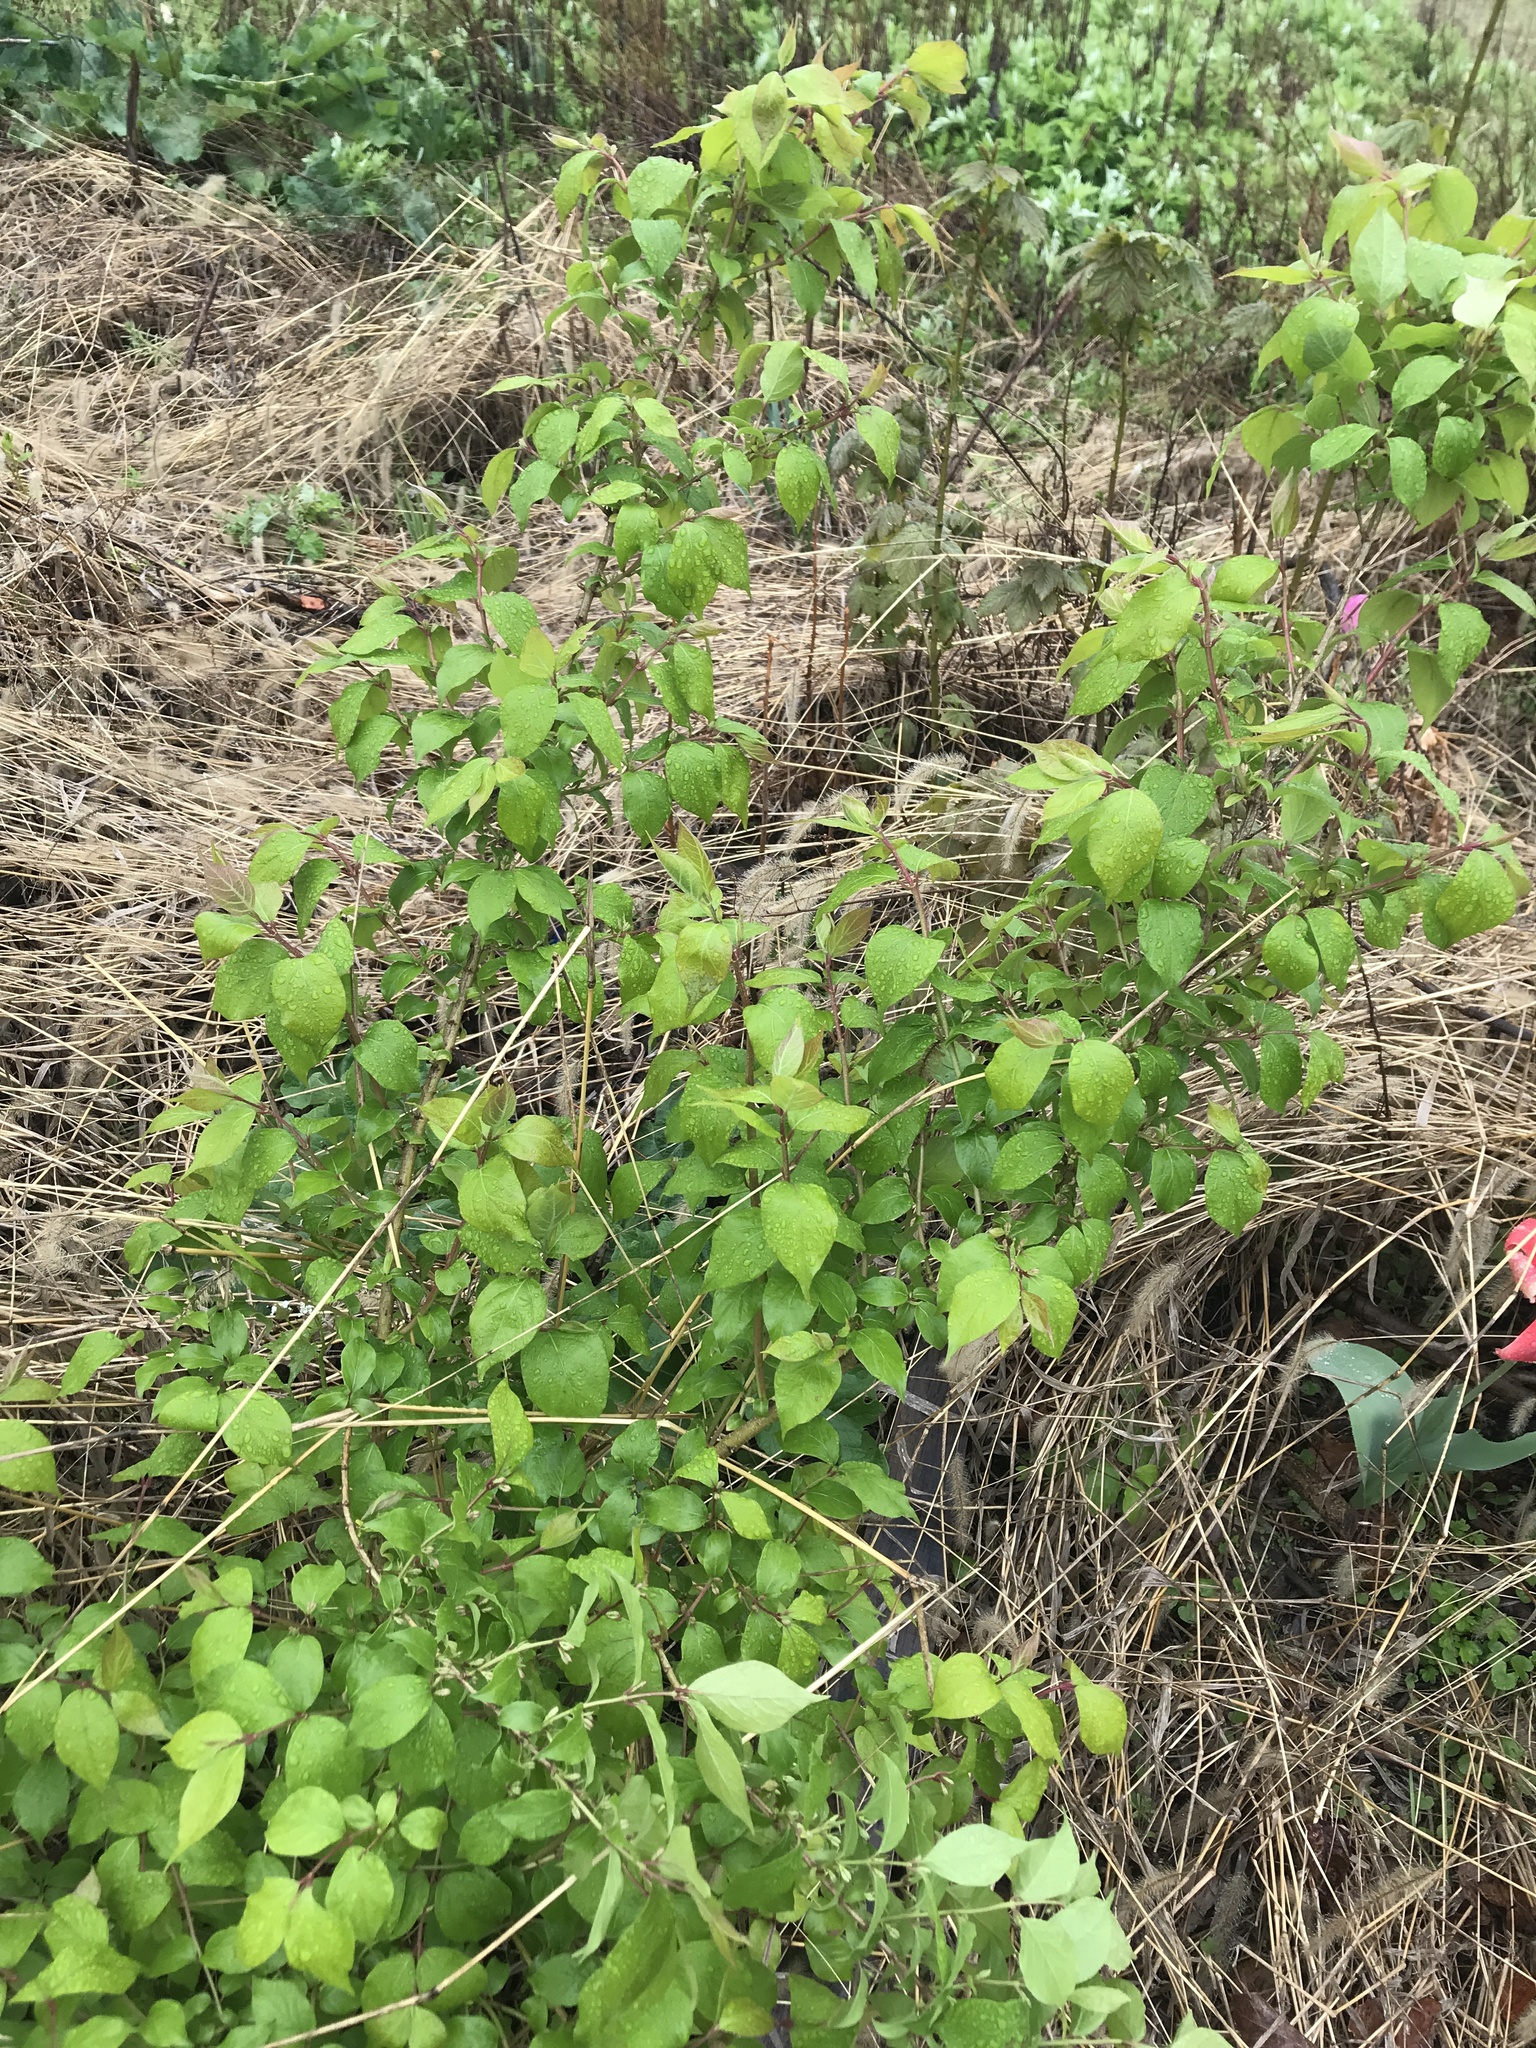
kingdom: Plantae
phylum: Tracheophyta
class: Magnoliopsida
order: Dipsacales
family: Caprifoliaceae
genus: Lonicera
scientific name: Lonicera maackii
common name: Amur honeysuckle
